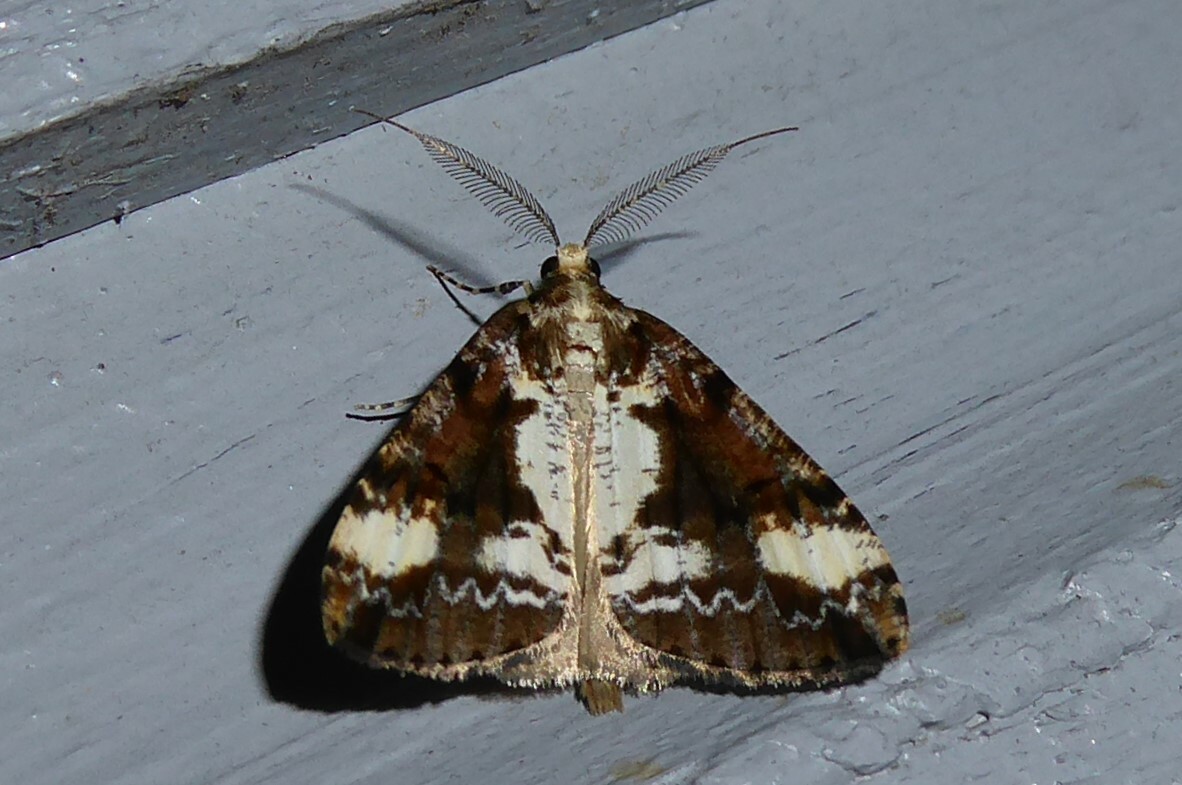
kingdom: Animalia
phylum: Arthropoda
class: Insecta
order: Lepidoptera
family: Geometridae
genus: Pseudocoremia
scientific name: Pseudocoremia leucelaea
